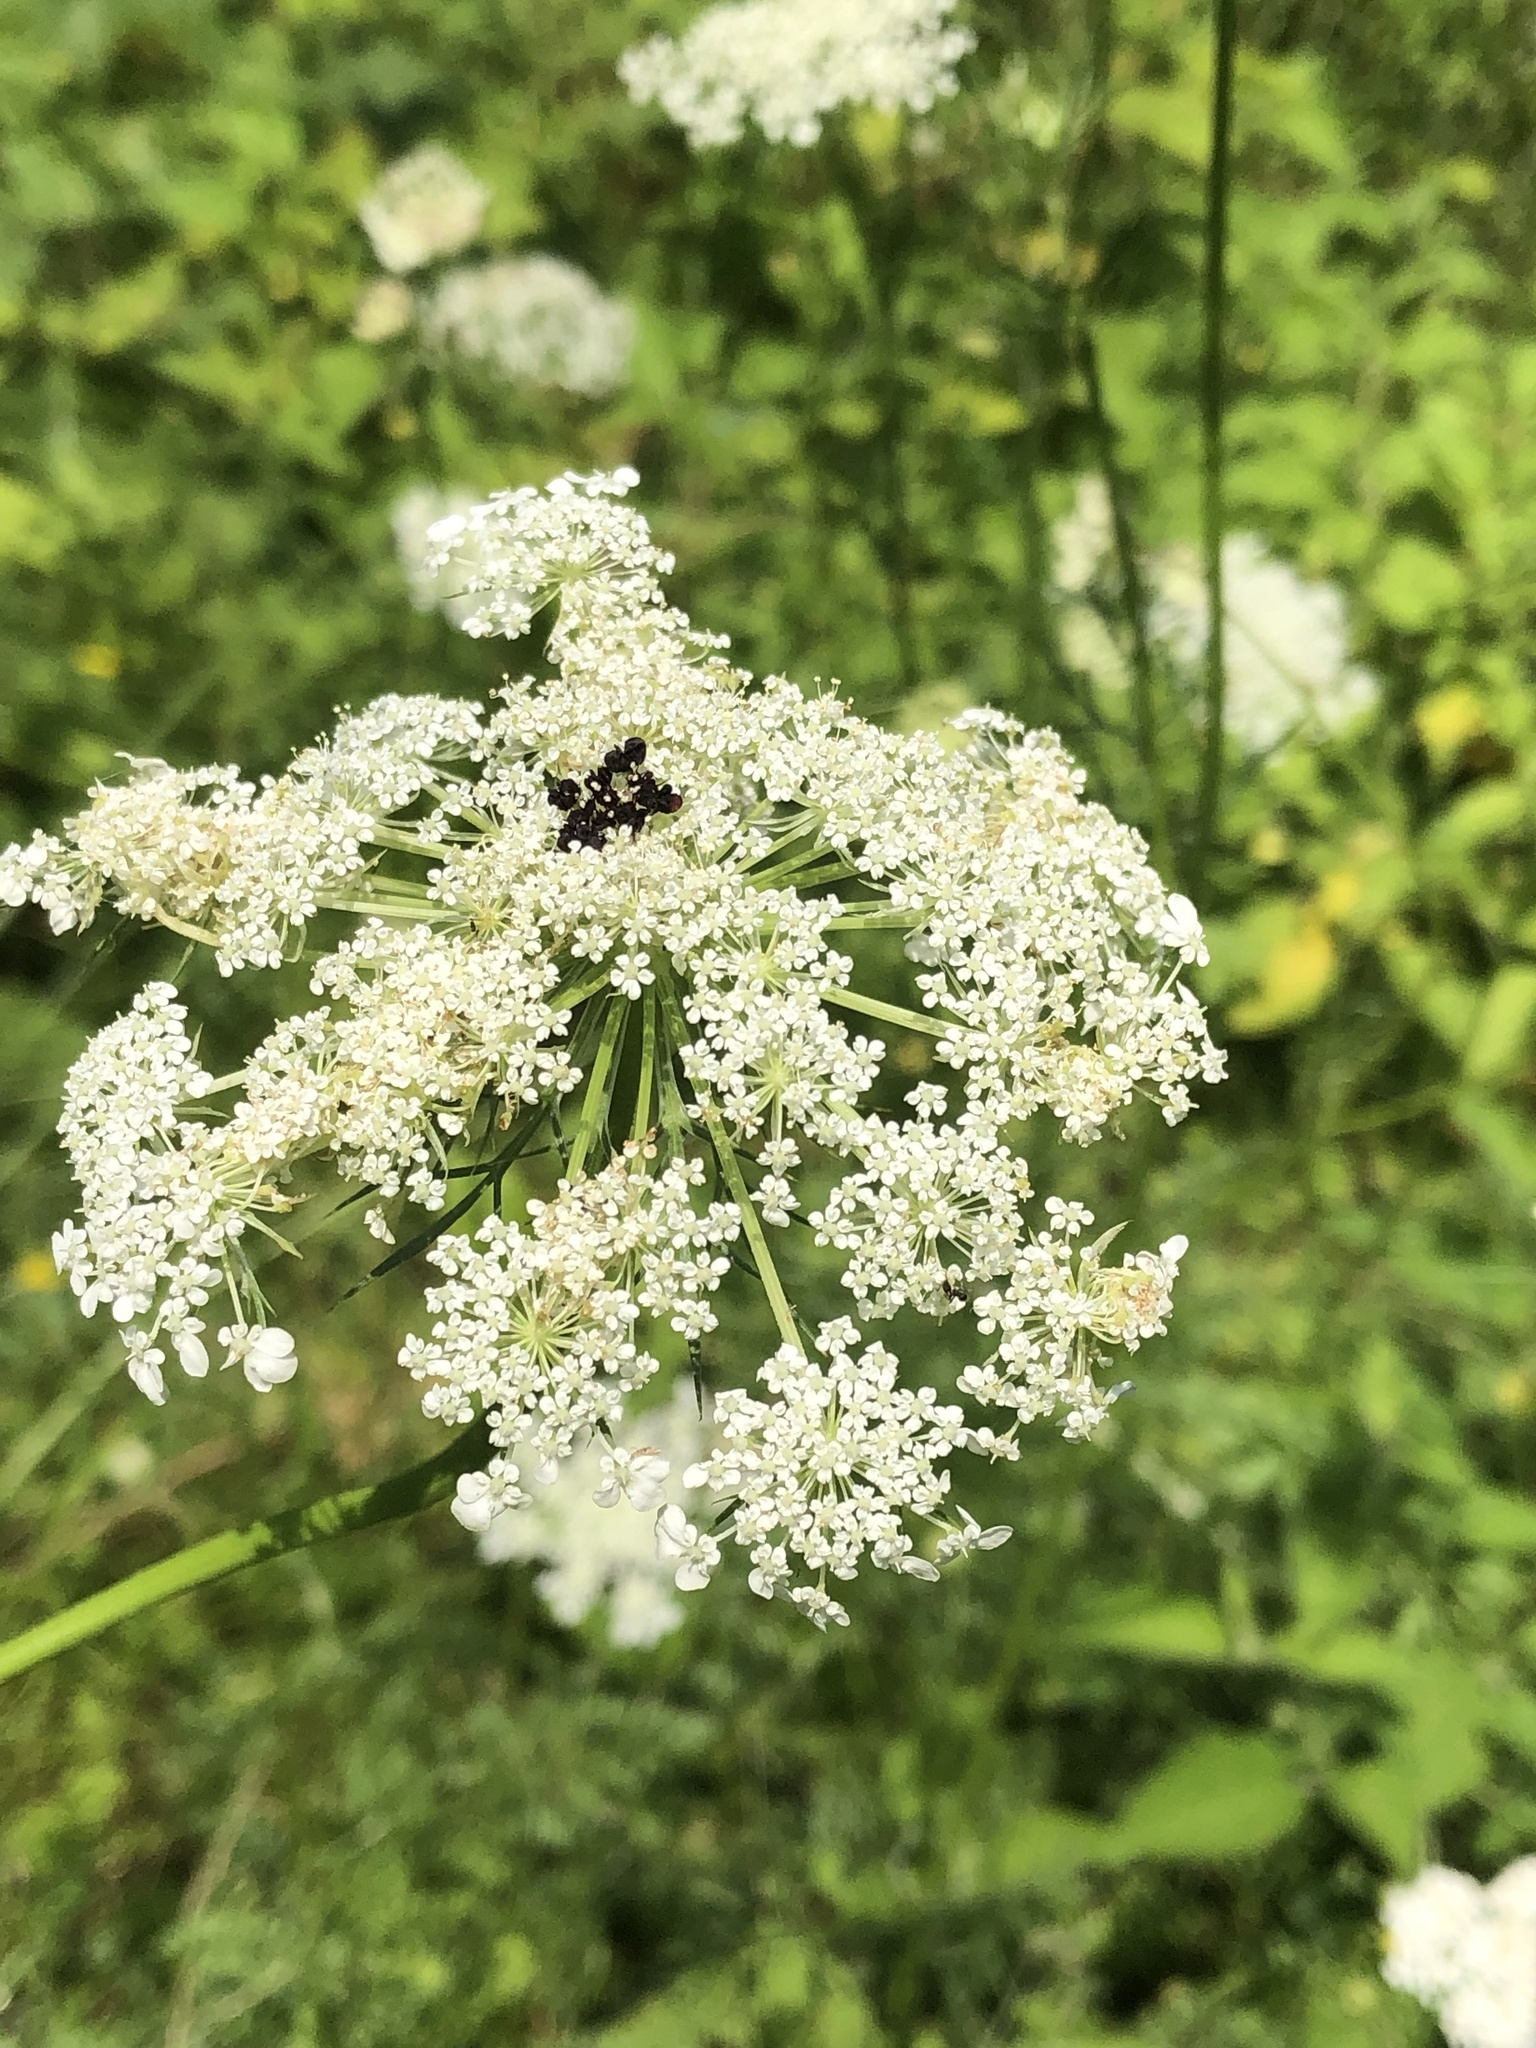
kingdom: Plantae
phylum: Tracheophyta
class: Magnoliopsida
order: Apiales
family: Apiaceae
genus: Daucus
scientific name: Daucus carota
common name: Wild carrot
